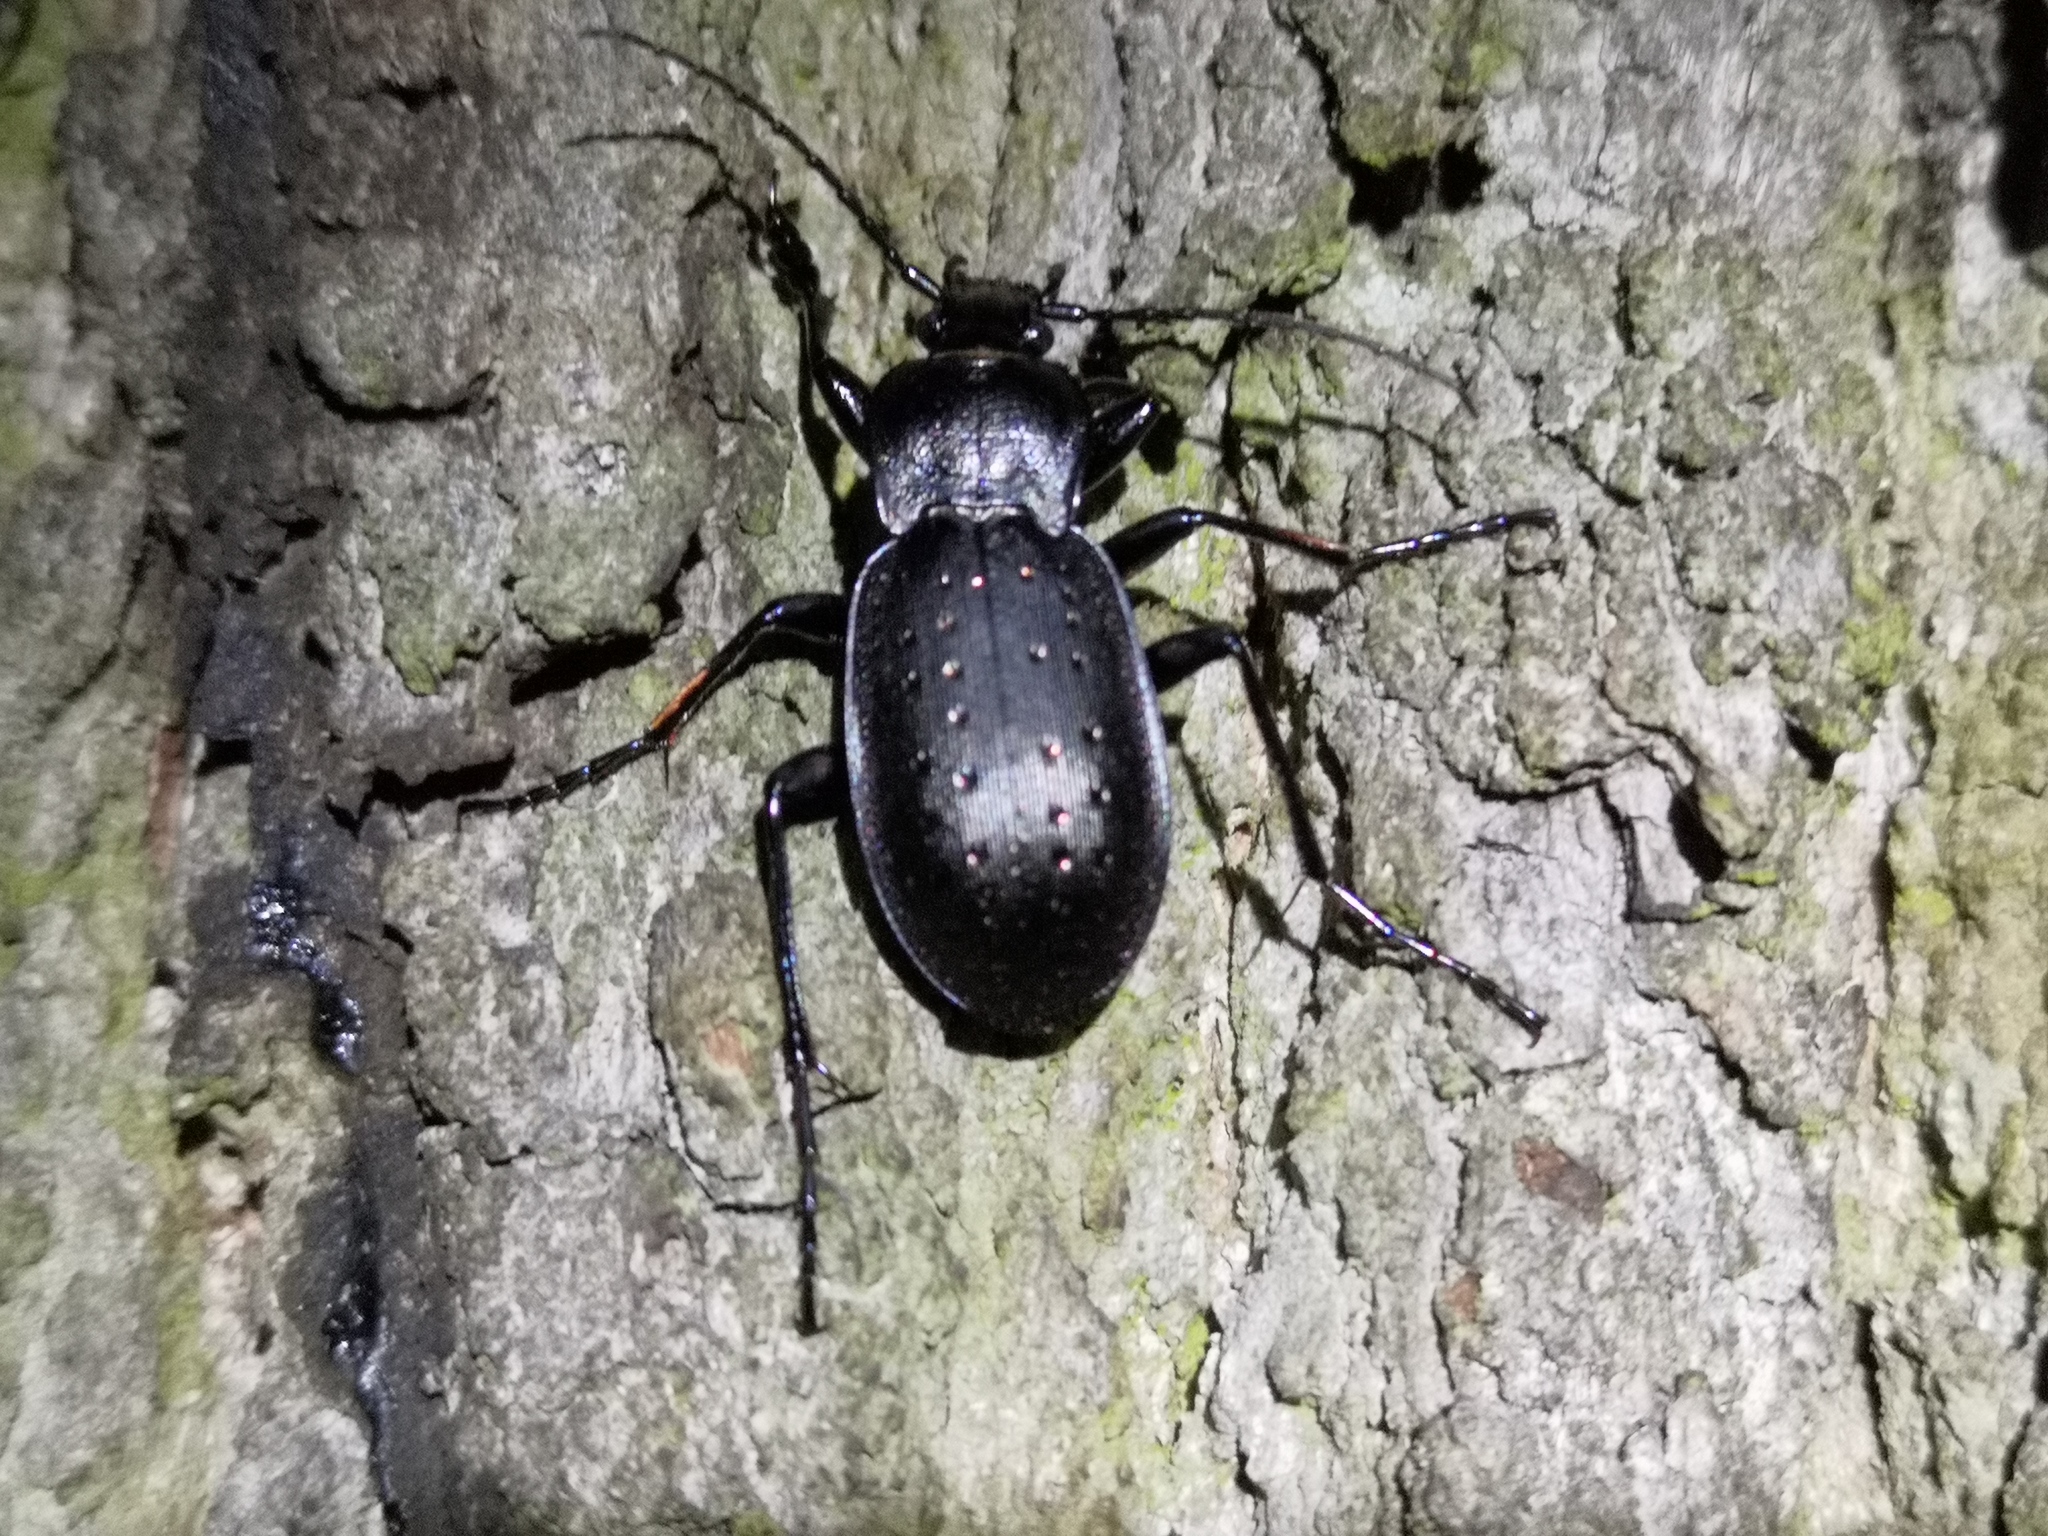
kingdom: Animalia
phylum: Arthropoda
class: Insecta
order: Coleoptera
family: Carabidae
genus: Carabus
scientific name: Carabus hortensis
